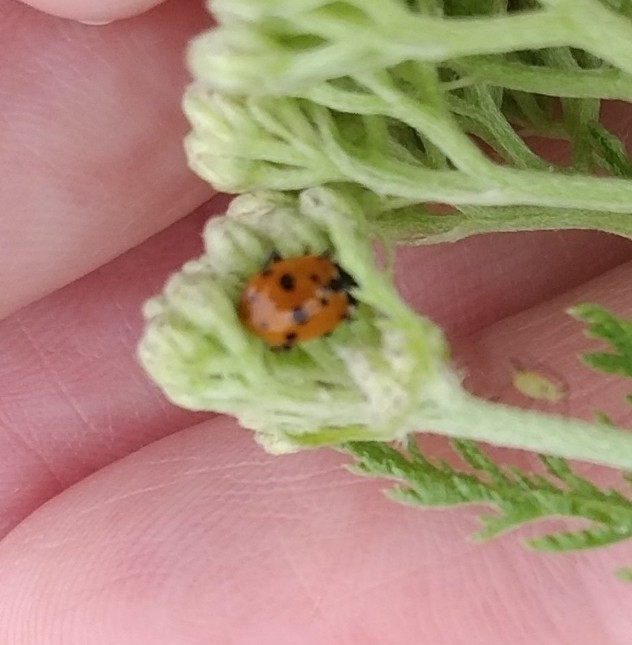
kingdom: Animalia
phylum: Arthropoda
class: Insecta
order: Coleoptera
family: Coccinellidae
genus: Hippodamia
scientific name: Hippodamia variegata
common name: Ladybird beetle
